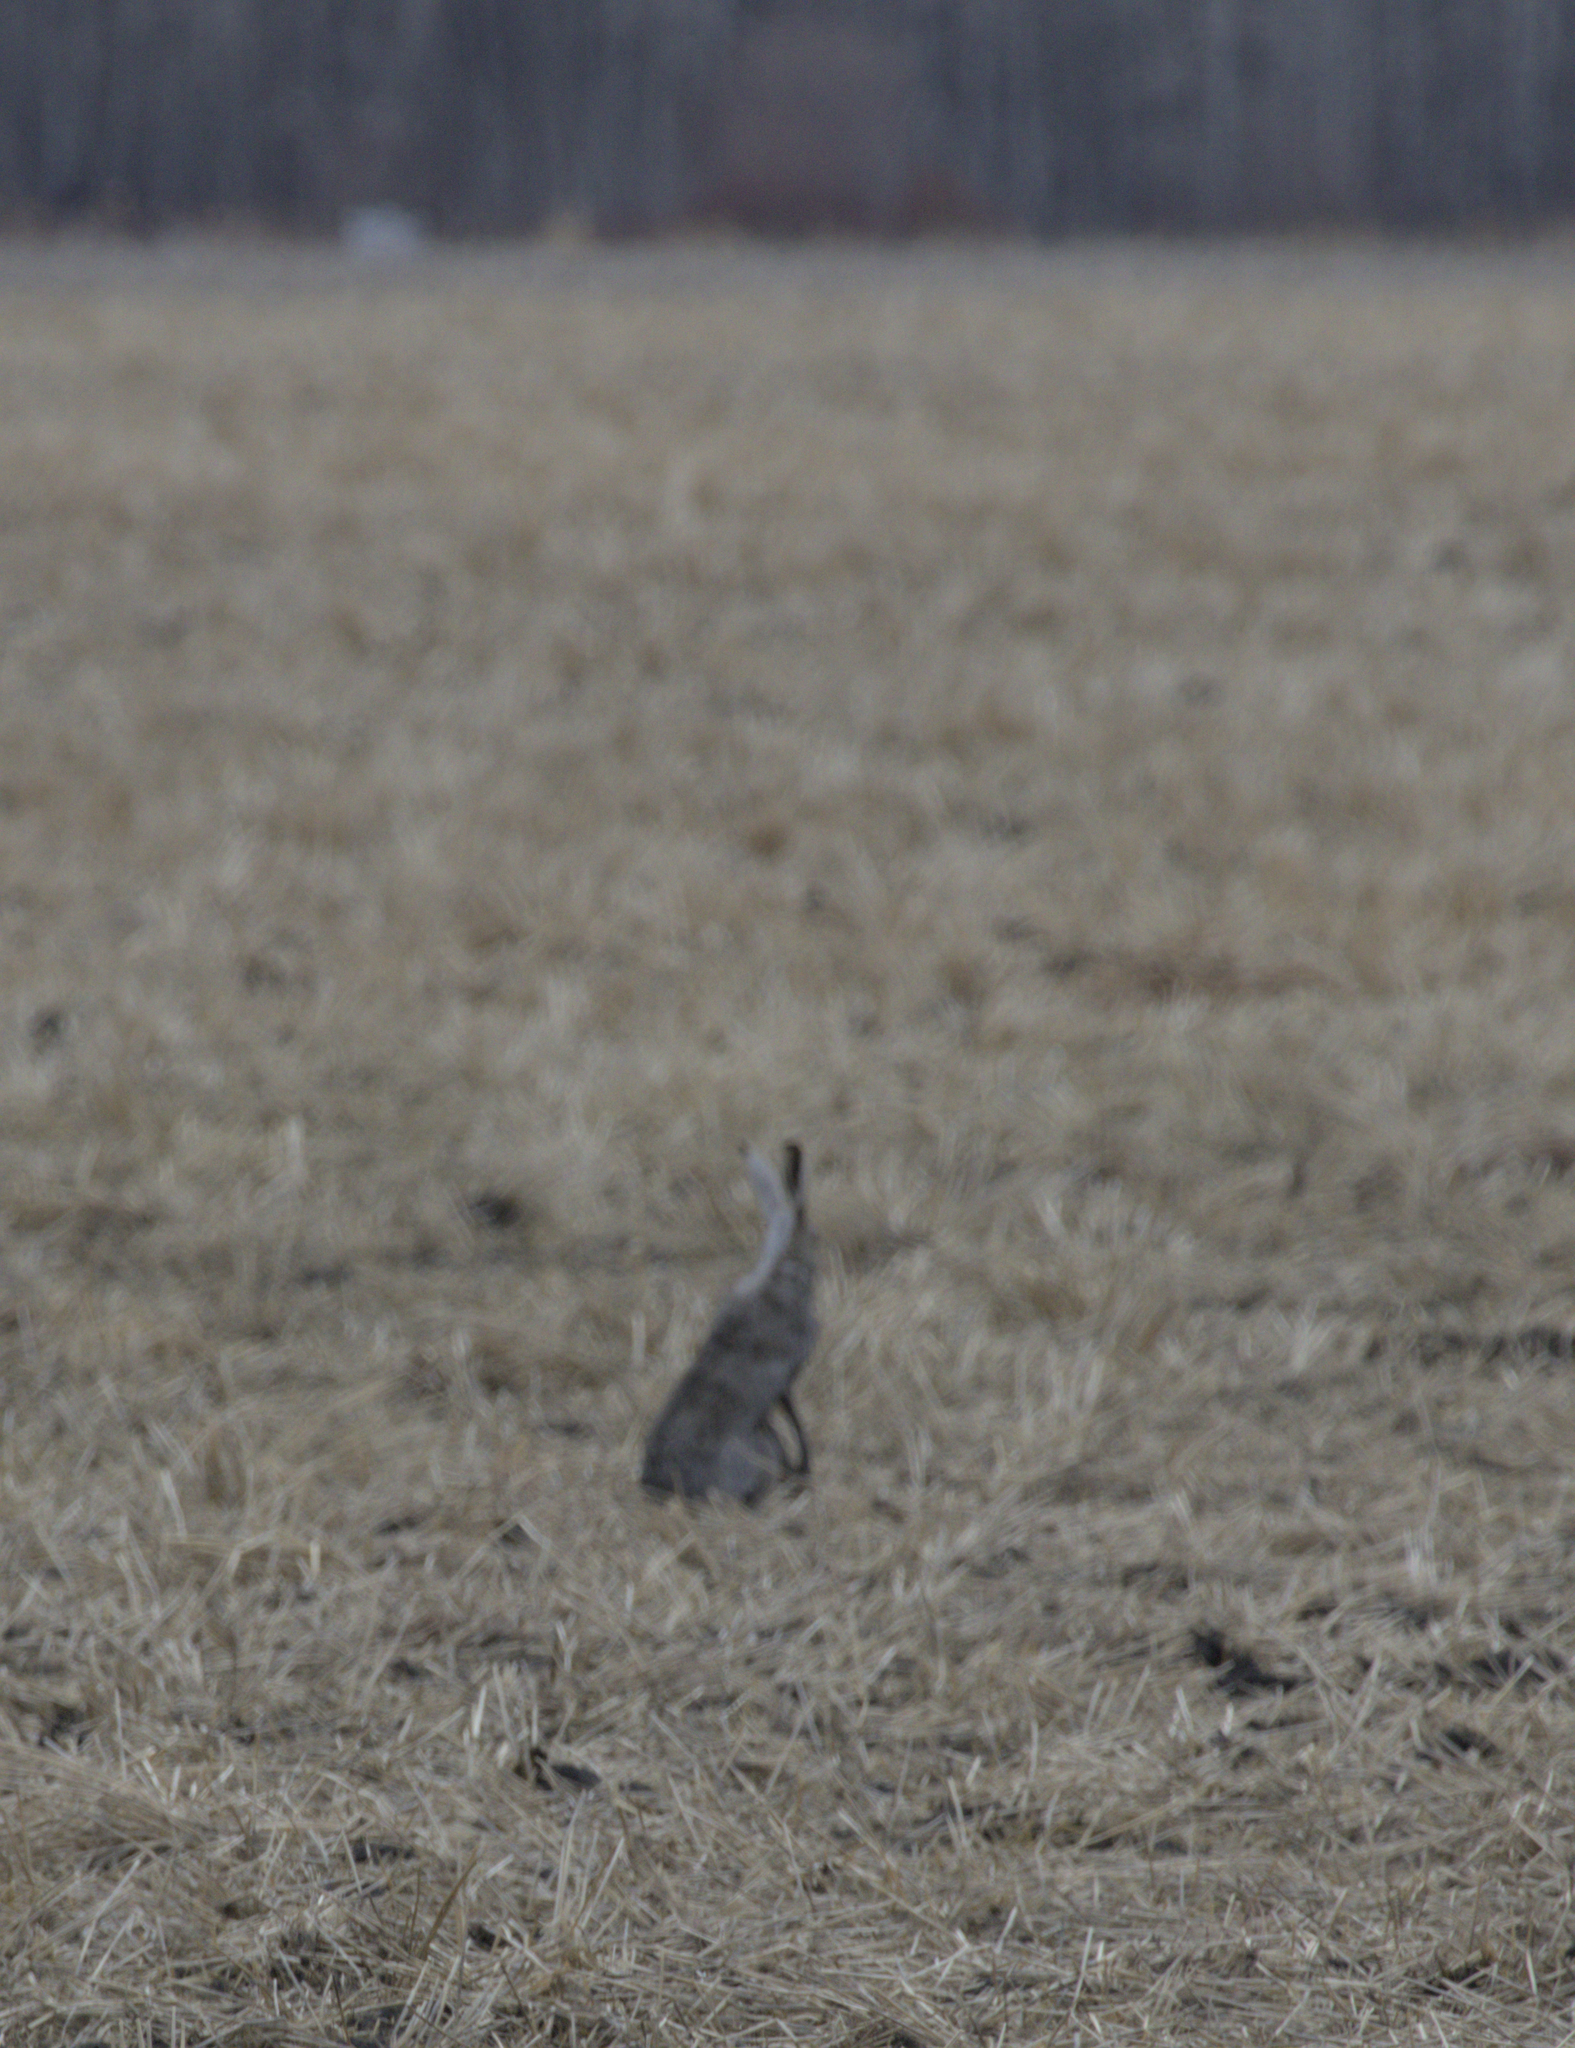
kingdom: Animalia
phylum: Chordata
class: Mammalia
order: Lagomorpha
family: Leporidae
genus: Lepus
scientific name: Lepus townsendii
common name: White-tailed jackrabbit
